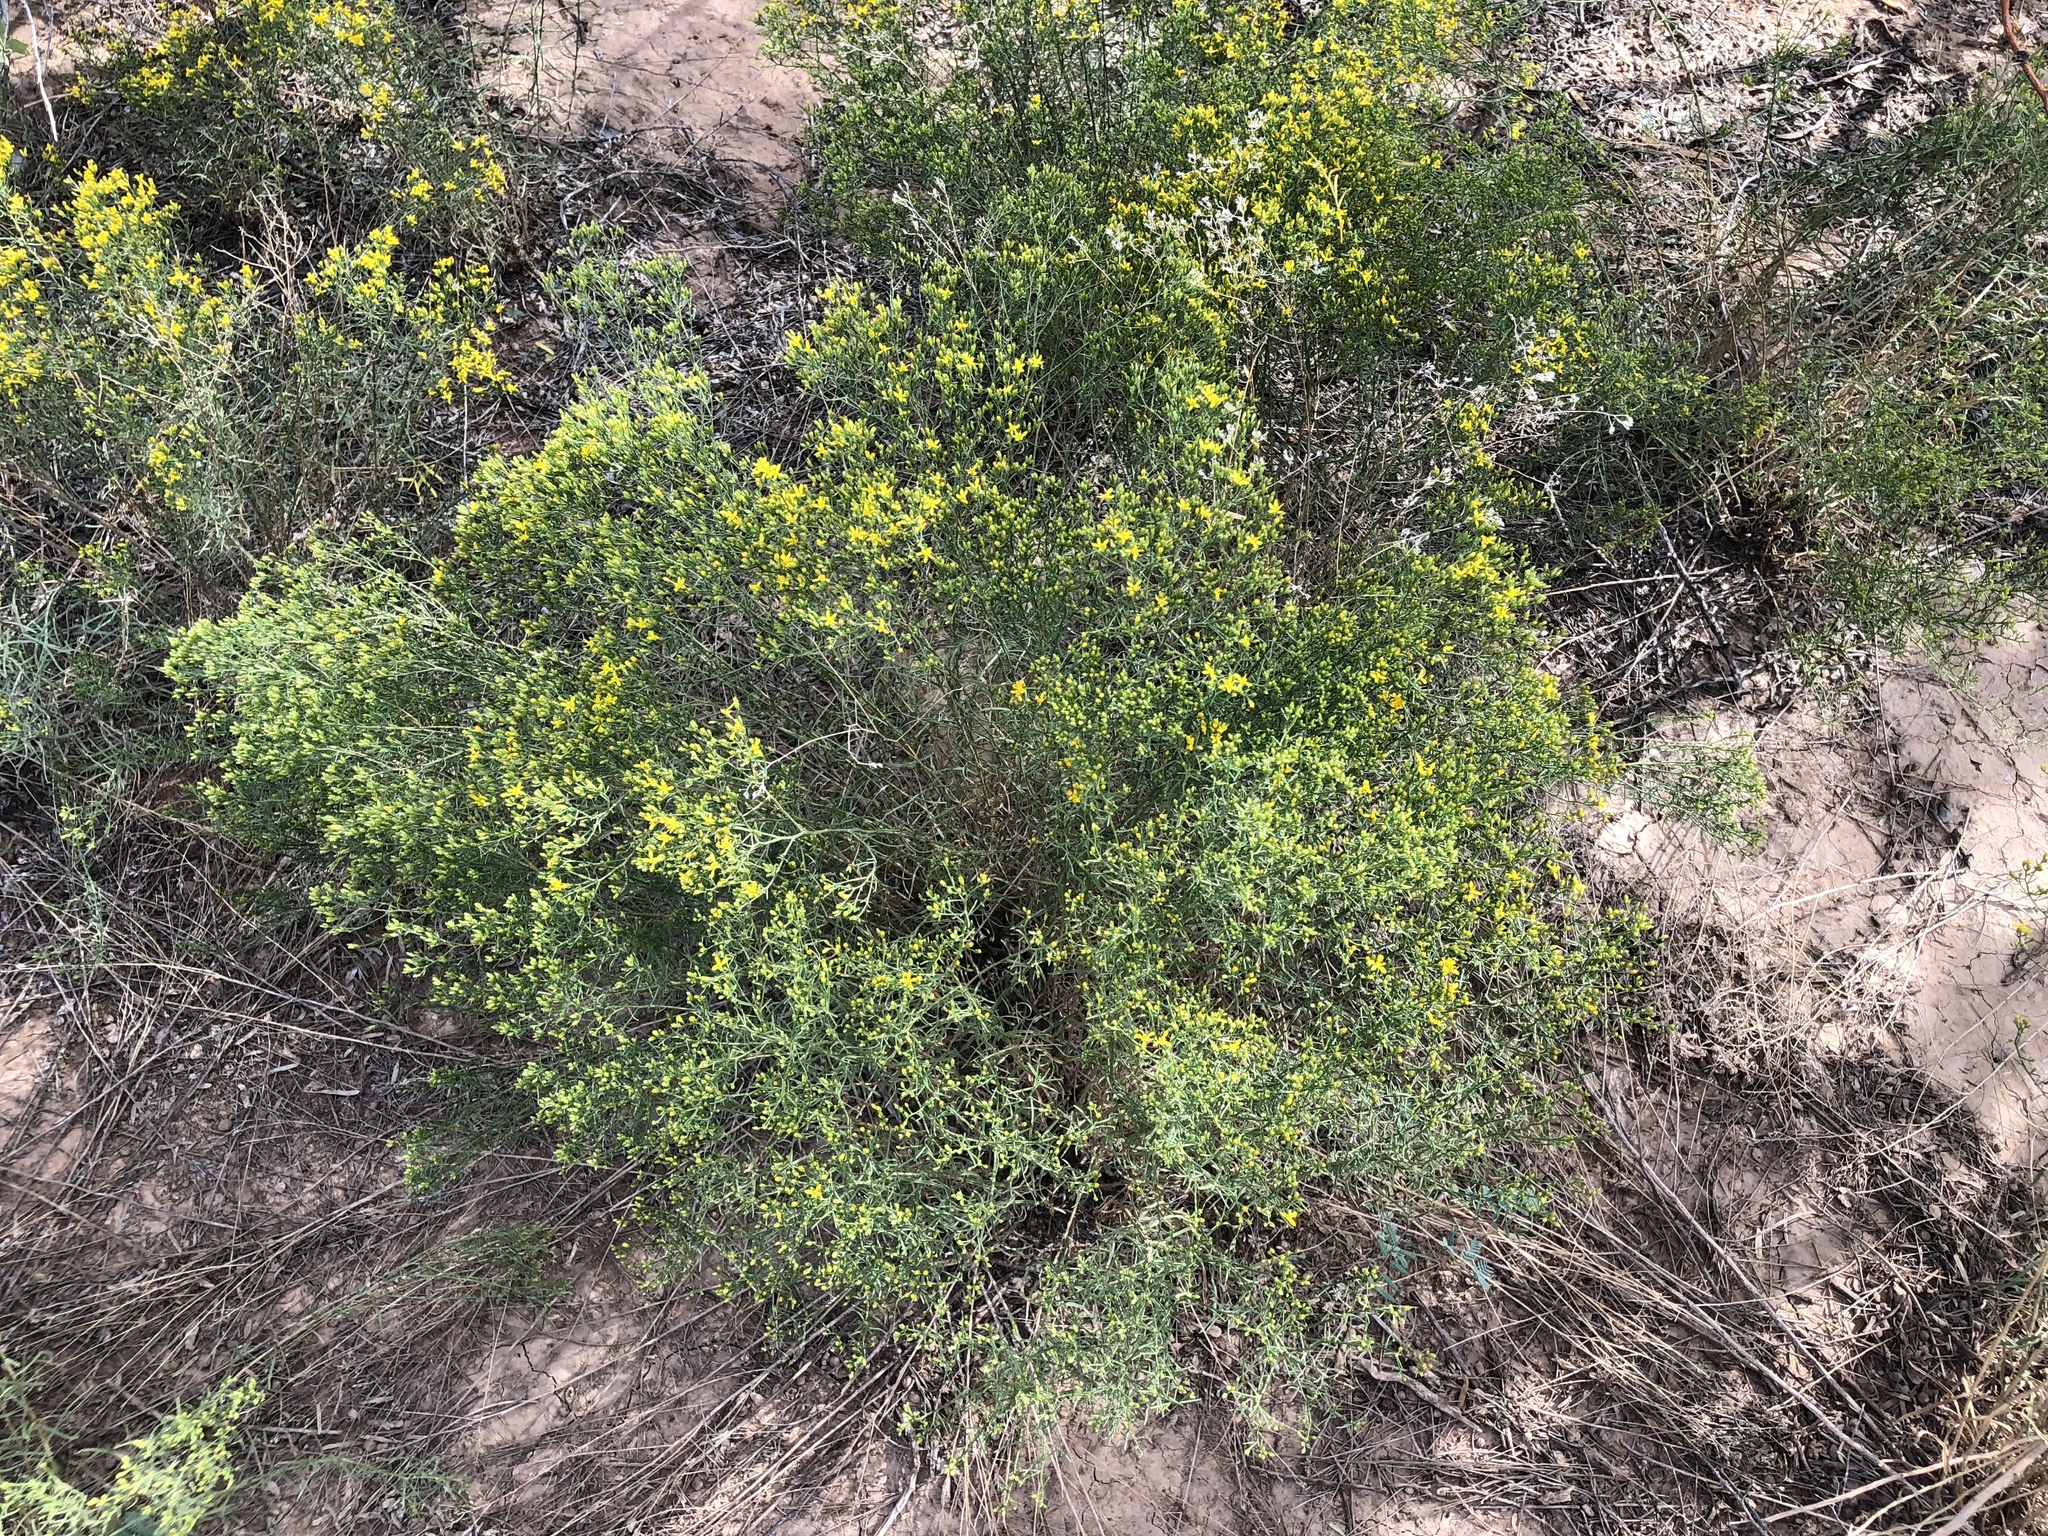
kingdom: Plantae
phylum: Tracheophyta
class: Magnoliopsida
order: Asterales
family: Asteraceae
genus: Gutierrezia
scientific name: Gutierrezia sarothrae
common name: Broom snakeweed
